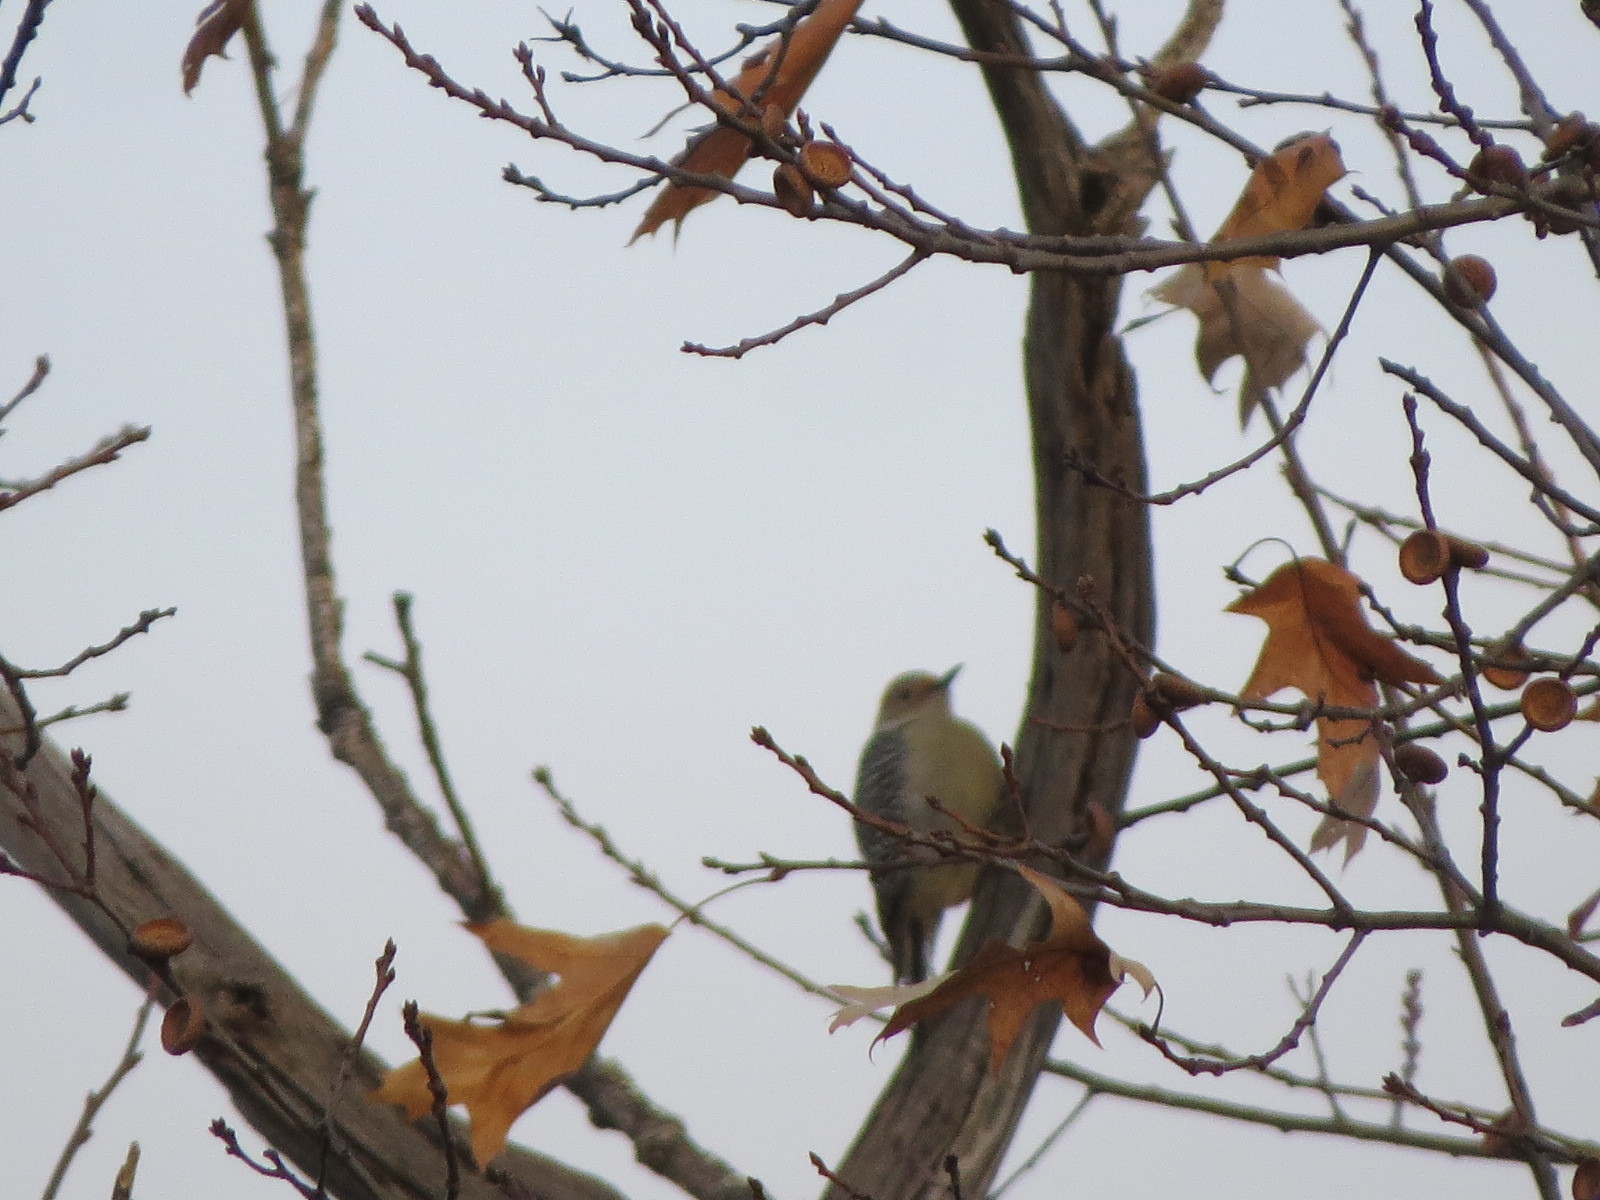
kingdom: Animalia
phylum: Chordata
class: Aves
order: Piciformes
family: Picidae
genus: Melanerpes
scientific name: Melanerpes carolinus
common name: Red-bellied woodpecker
